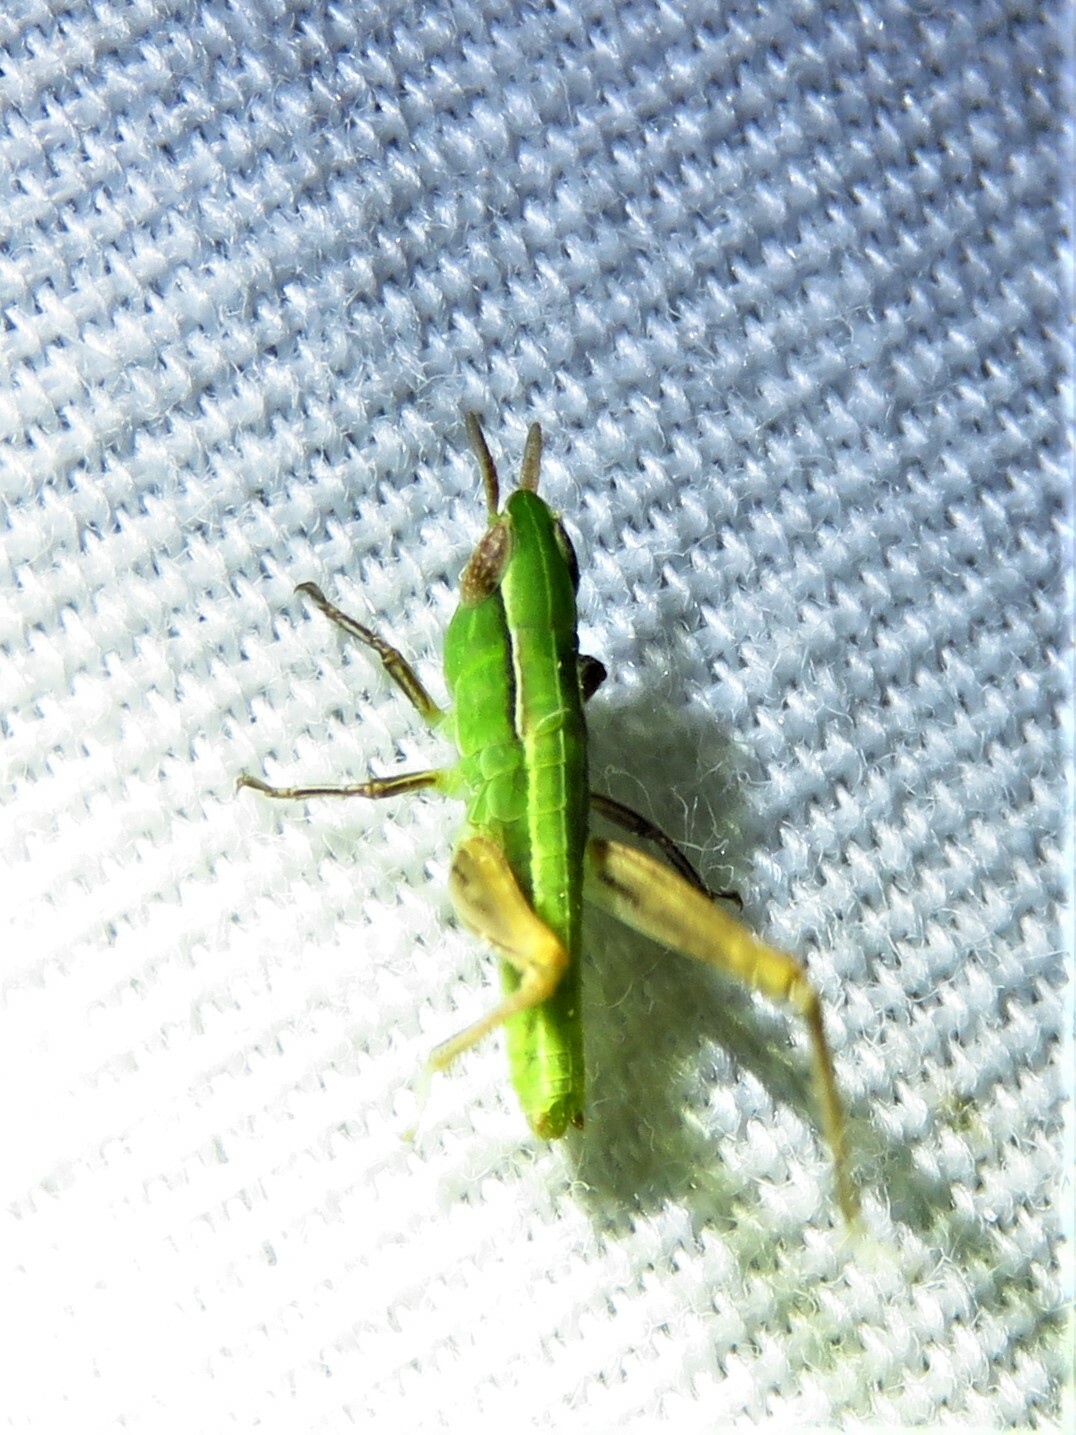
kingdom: Animalia
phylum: Arthropoda
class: Insecta
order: Orthoptera
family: Acrididae
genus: Orphulella
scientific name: Orphulella speciosa
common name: Pasture grasshopper
